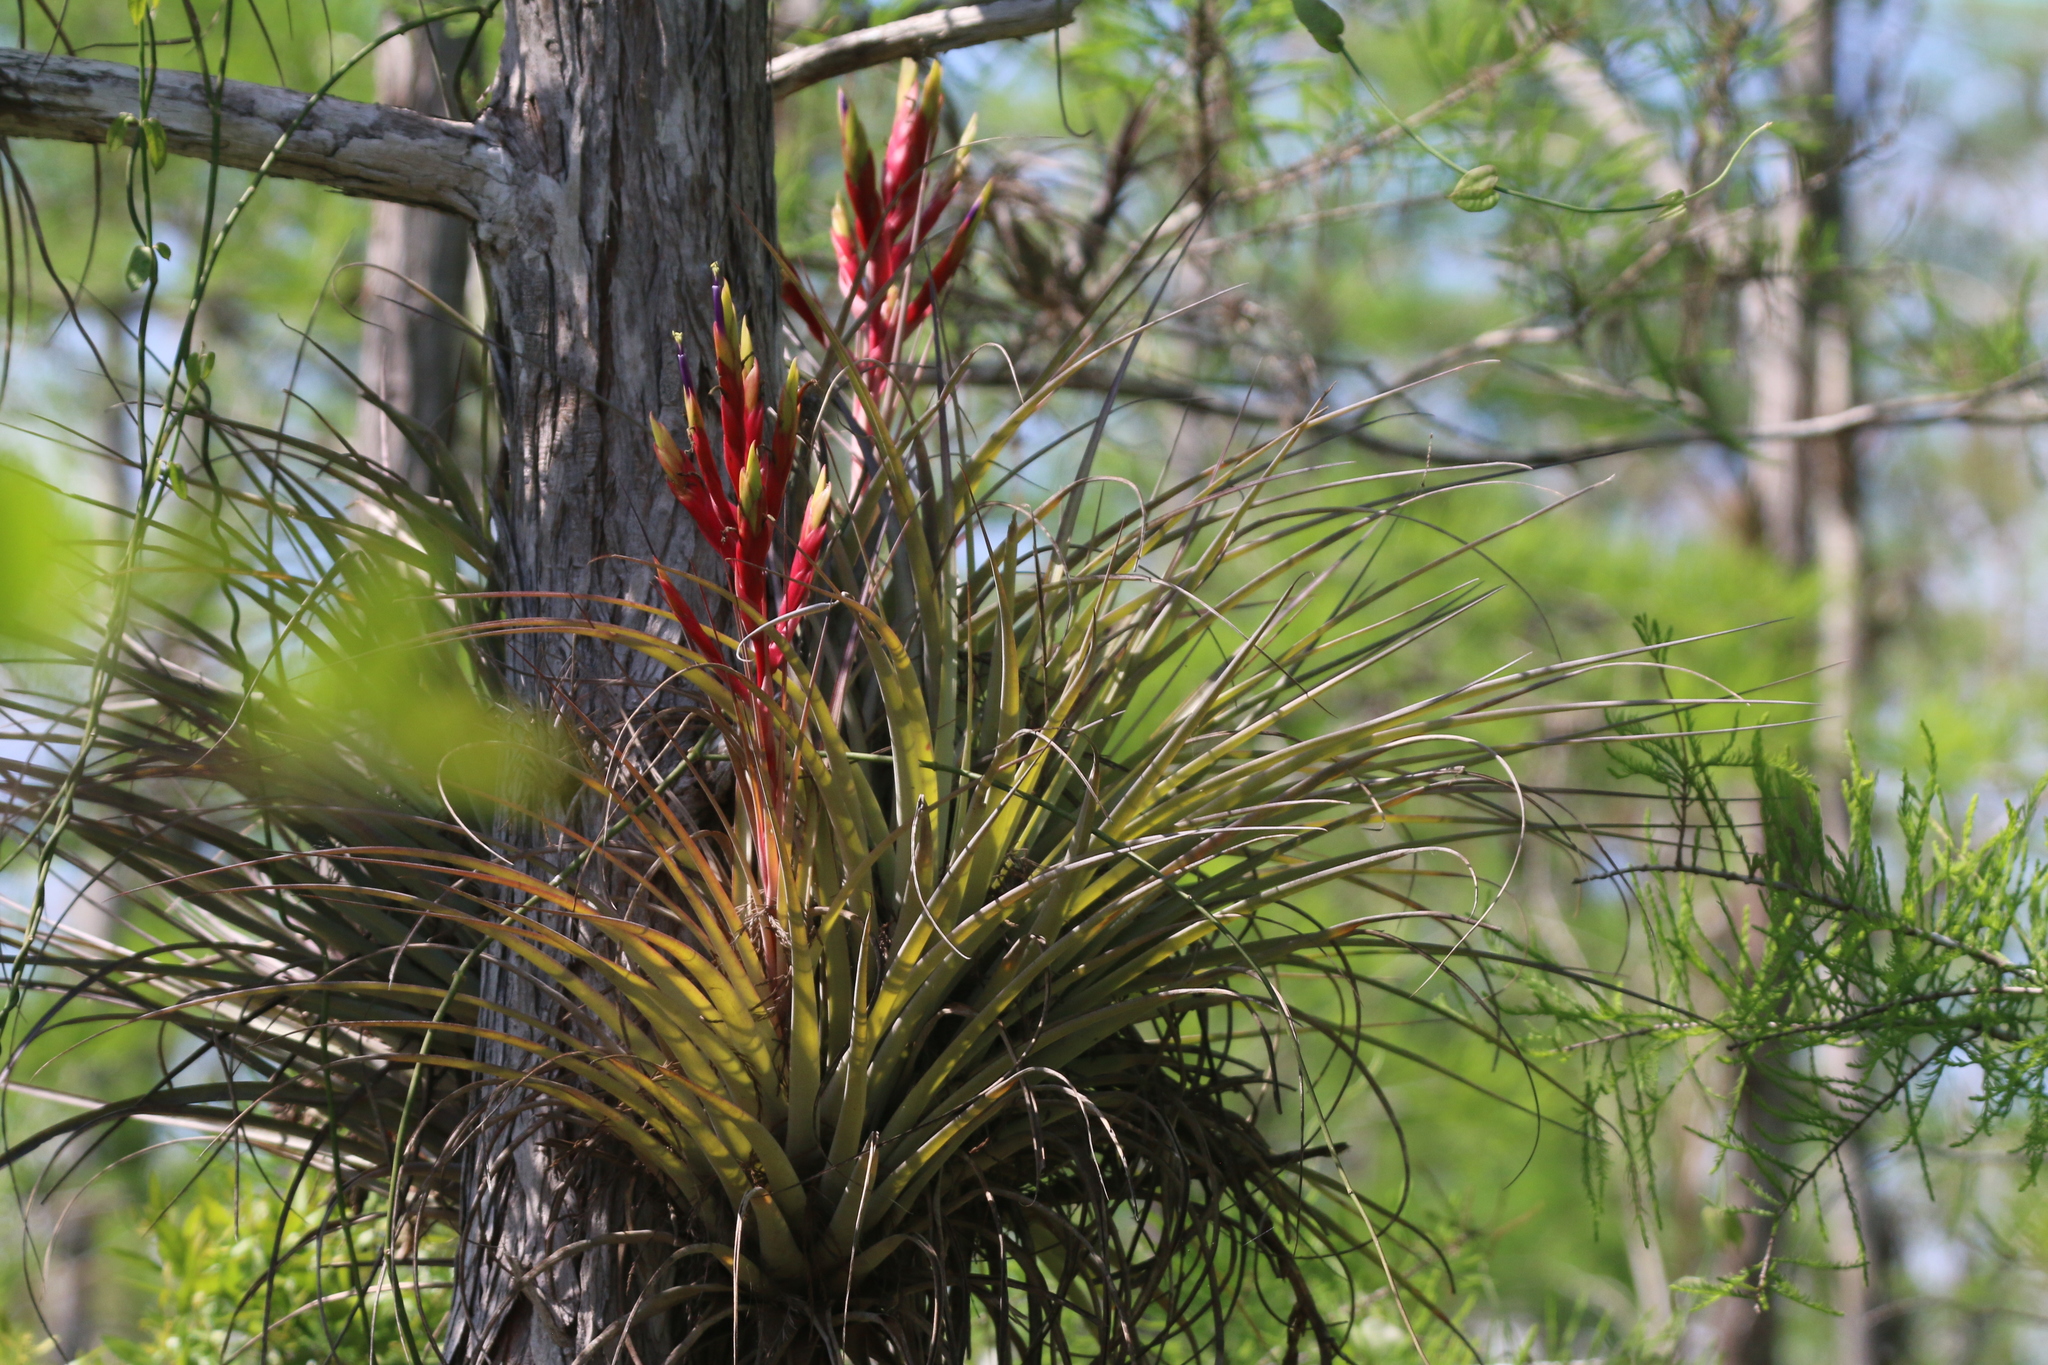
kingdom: Plantae
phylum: Tracheophyta
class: Liliopsida
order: Poales
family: Bromeliaceae
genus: Tillandsia
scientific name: Tillandsia fasciculata
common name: Giant airplant
